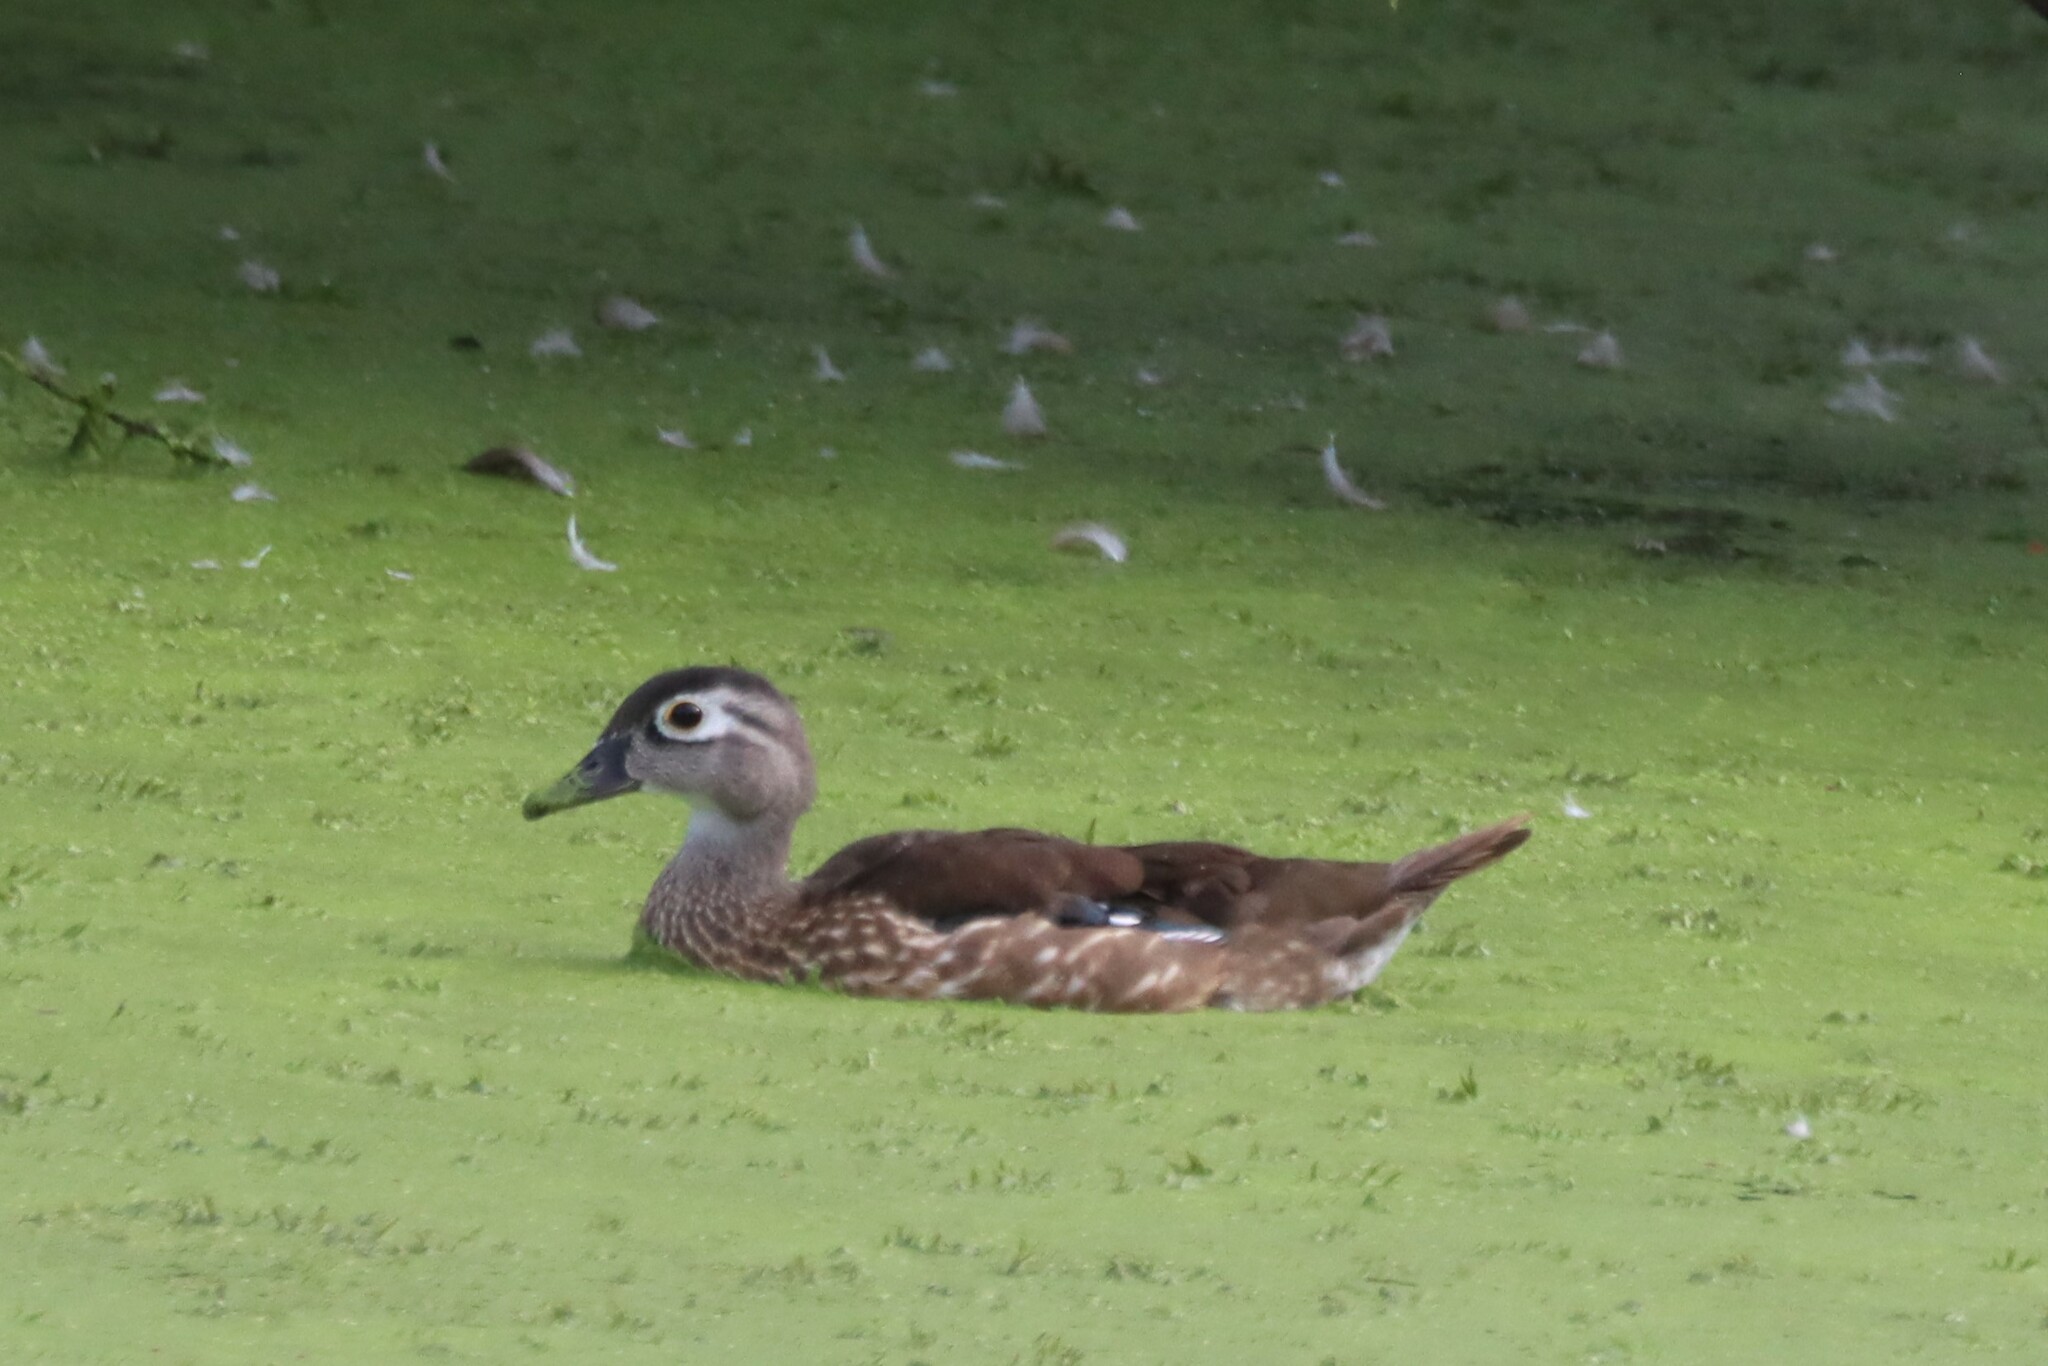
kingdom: Animalia
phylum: Chordata
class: Aves
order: Anseriformes
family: Anatidae
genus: Aix
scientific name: Aix sponsa
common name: Wood duck
